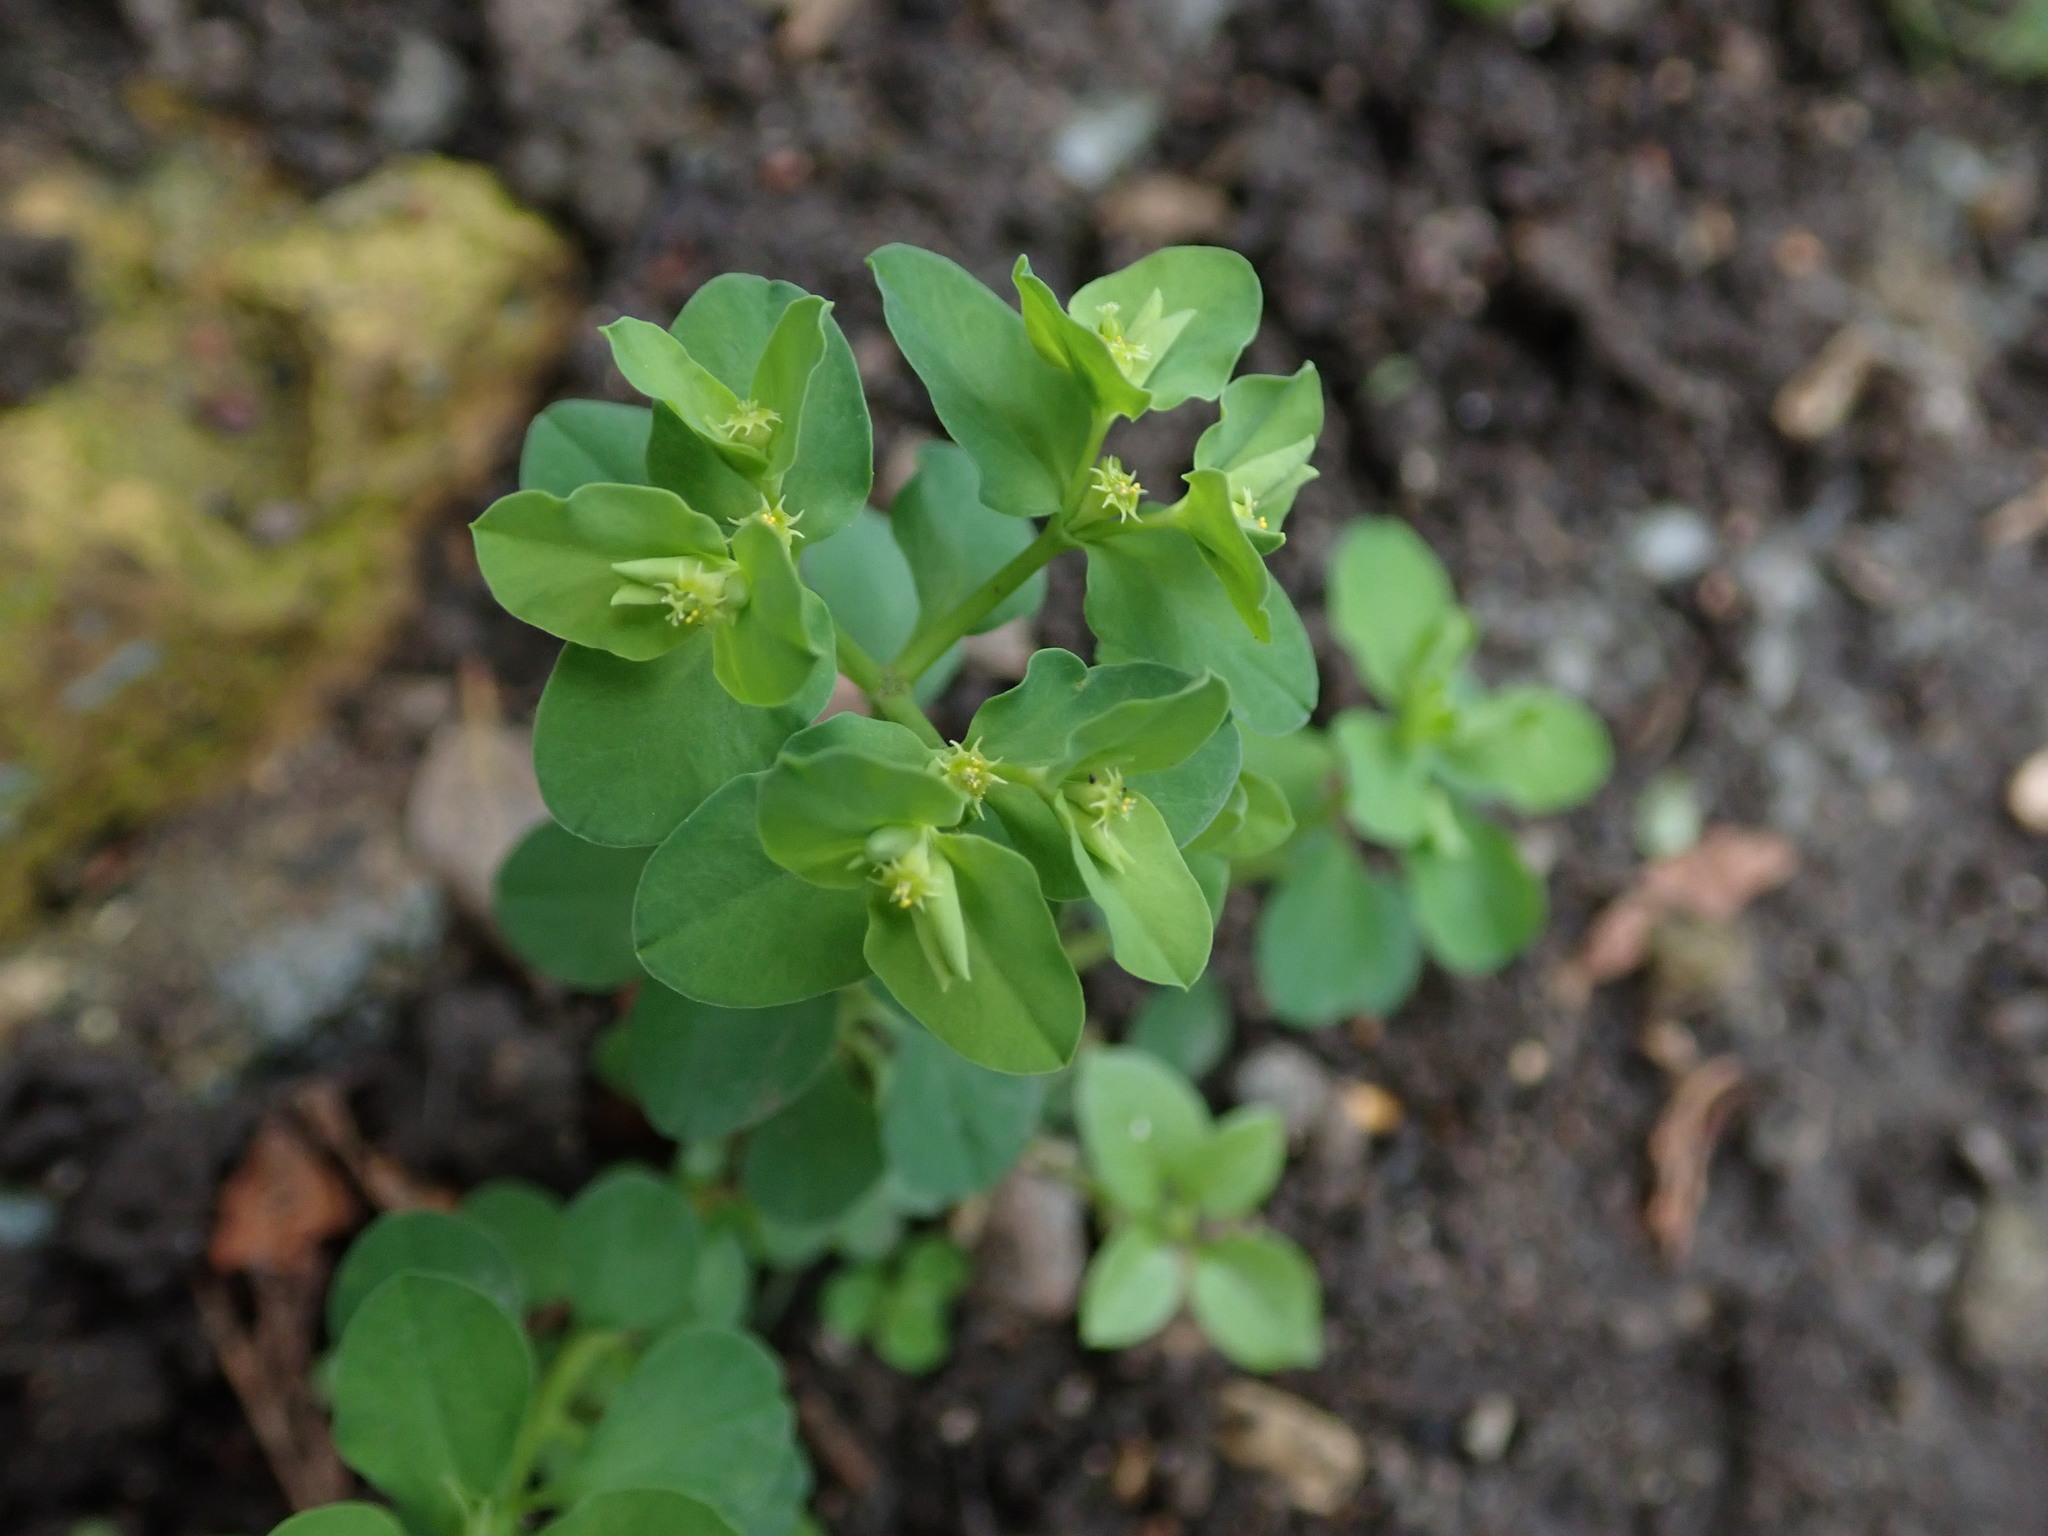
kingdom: Plantae
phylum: Tracheophyta
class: Magnoliopsida
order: Malpighiales
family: Euphorbiaceae
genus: Euphorbia
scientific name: Euphorbia peplus
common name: Petty spurge
